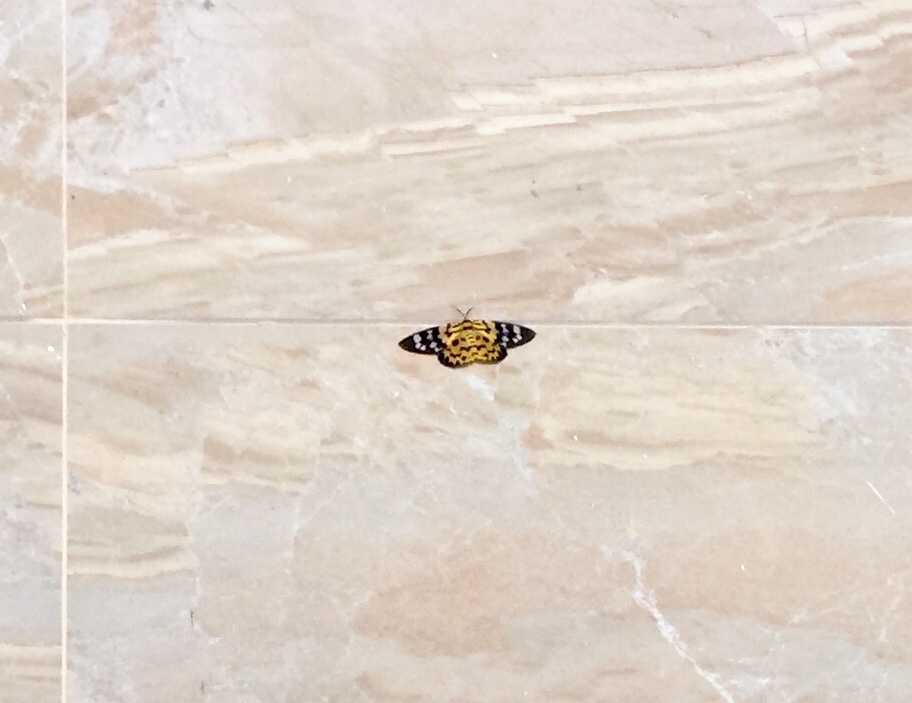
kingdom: Animalia
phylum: Arthropoda
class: Insecta
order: Lepidoptera
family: Geometridae
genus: Dysphania
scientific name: Dysphania militaris
